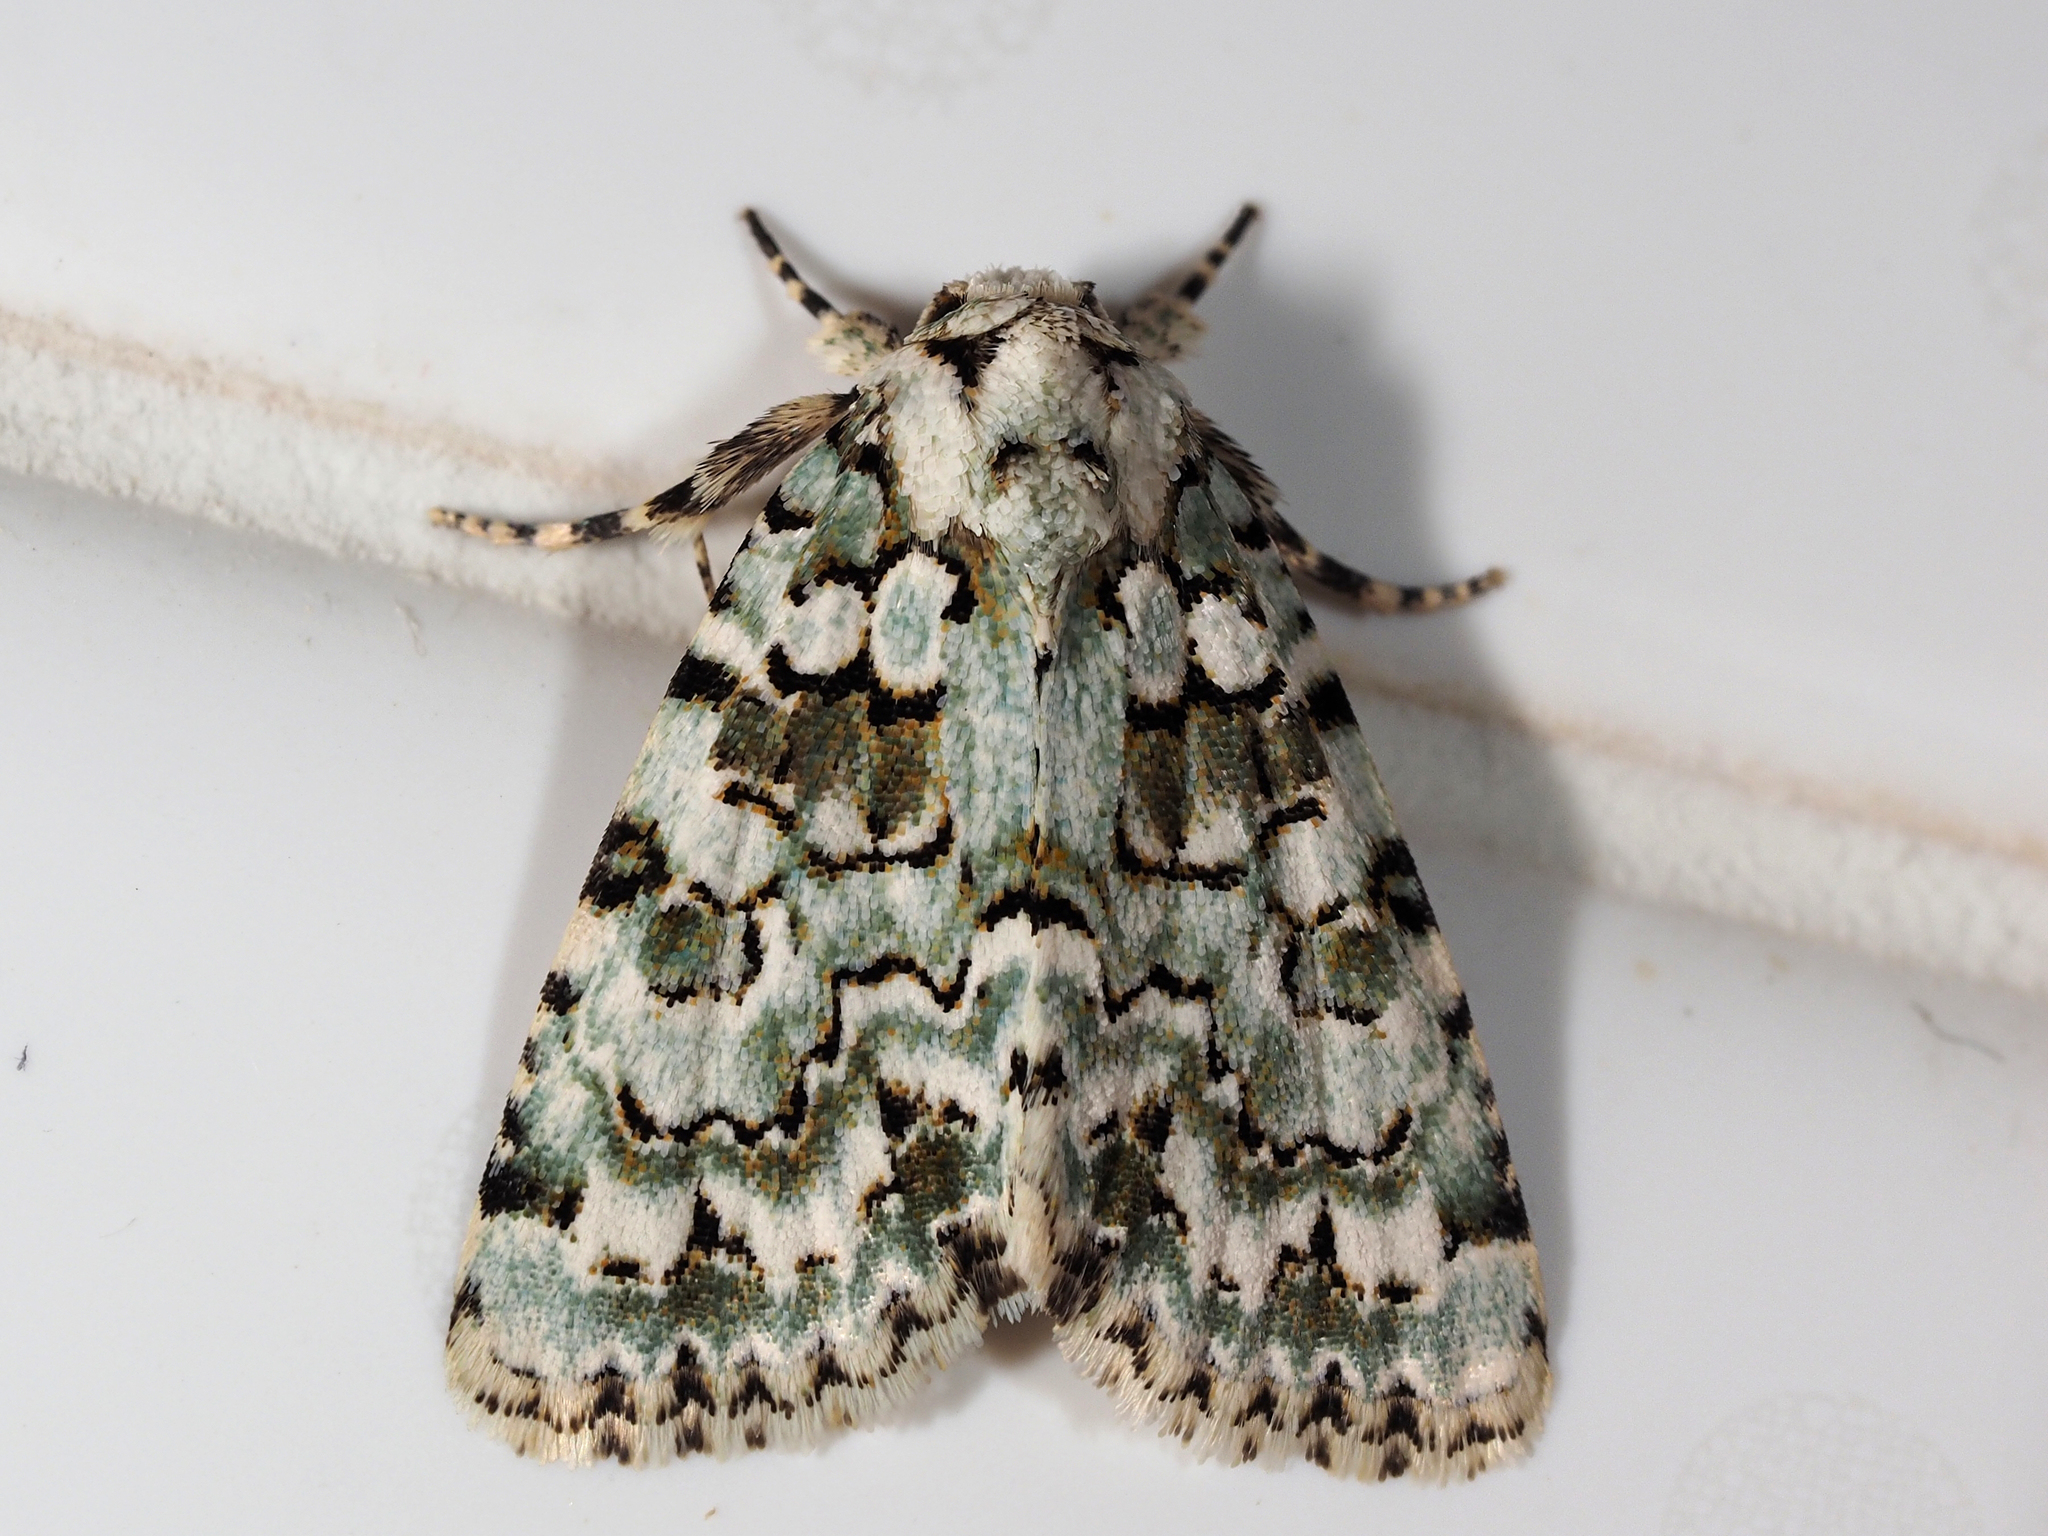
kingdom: Animalia
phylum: Arthropoda
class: Insecta
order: Lepidoptera
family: Noctuidae
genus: Nyctobrya
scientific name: Nyctobrya muralis
